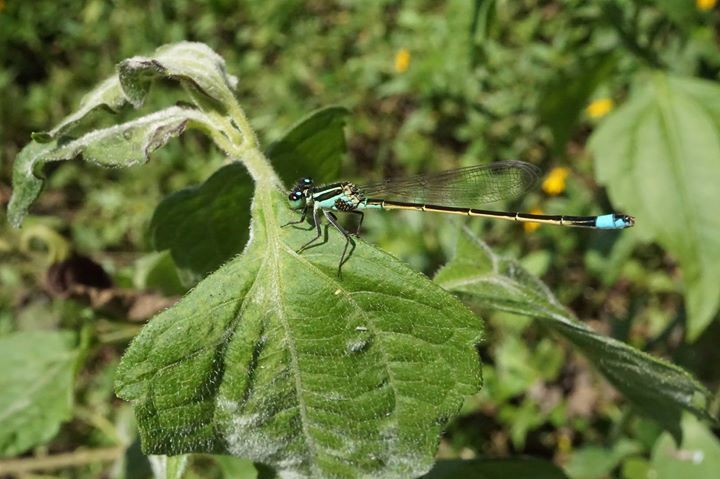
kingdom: Animalia
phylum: Arthropoda
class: Insecta
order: Odonata
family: Coenagrionidae
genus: Ischnura
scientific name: Ischnura ramburii
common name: Rambur's forktail
